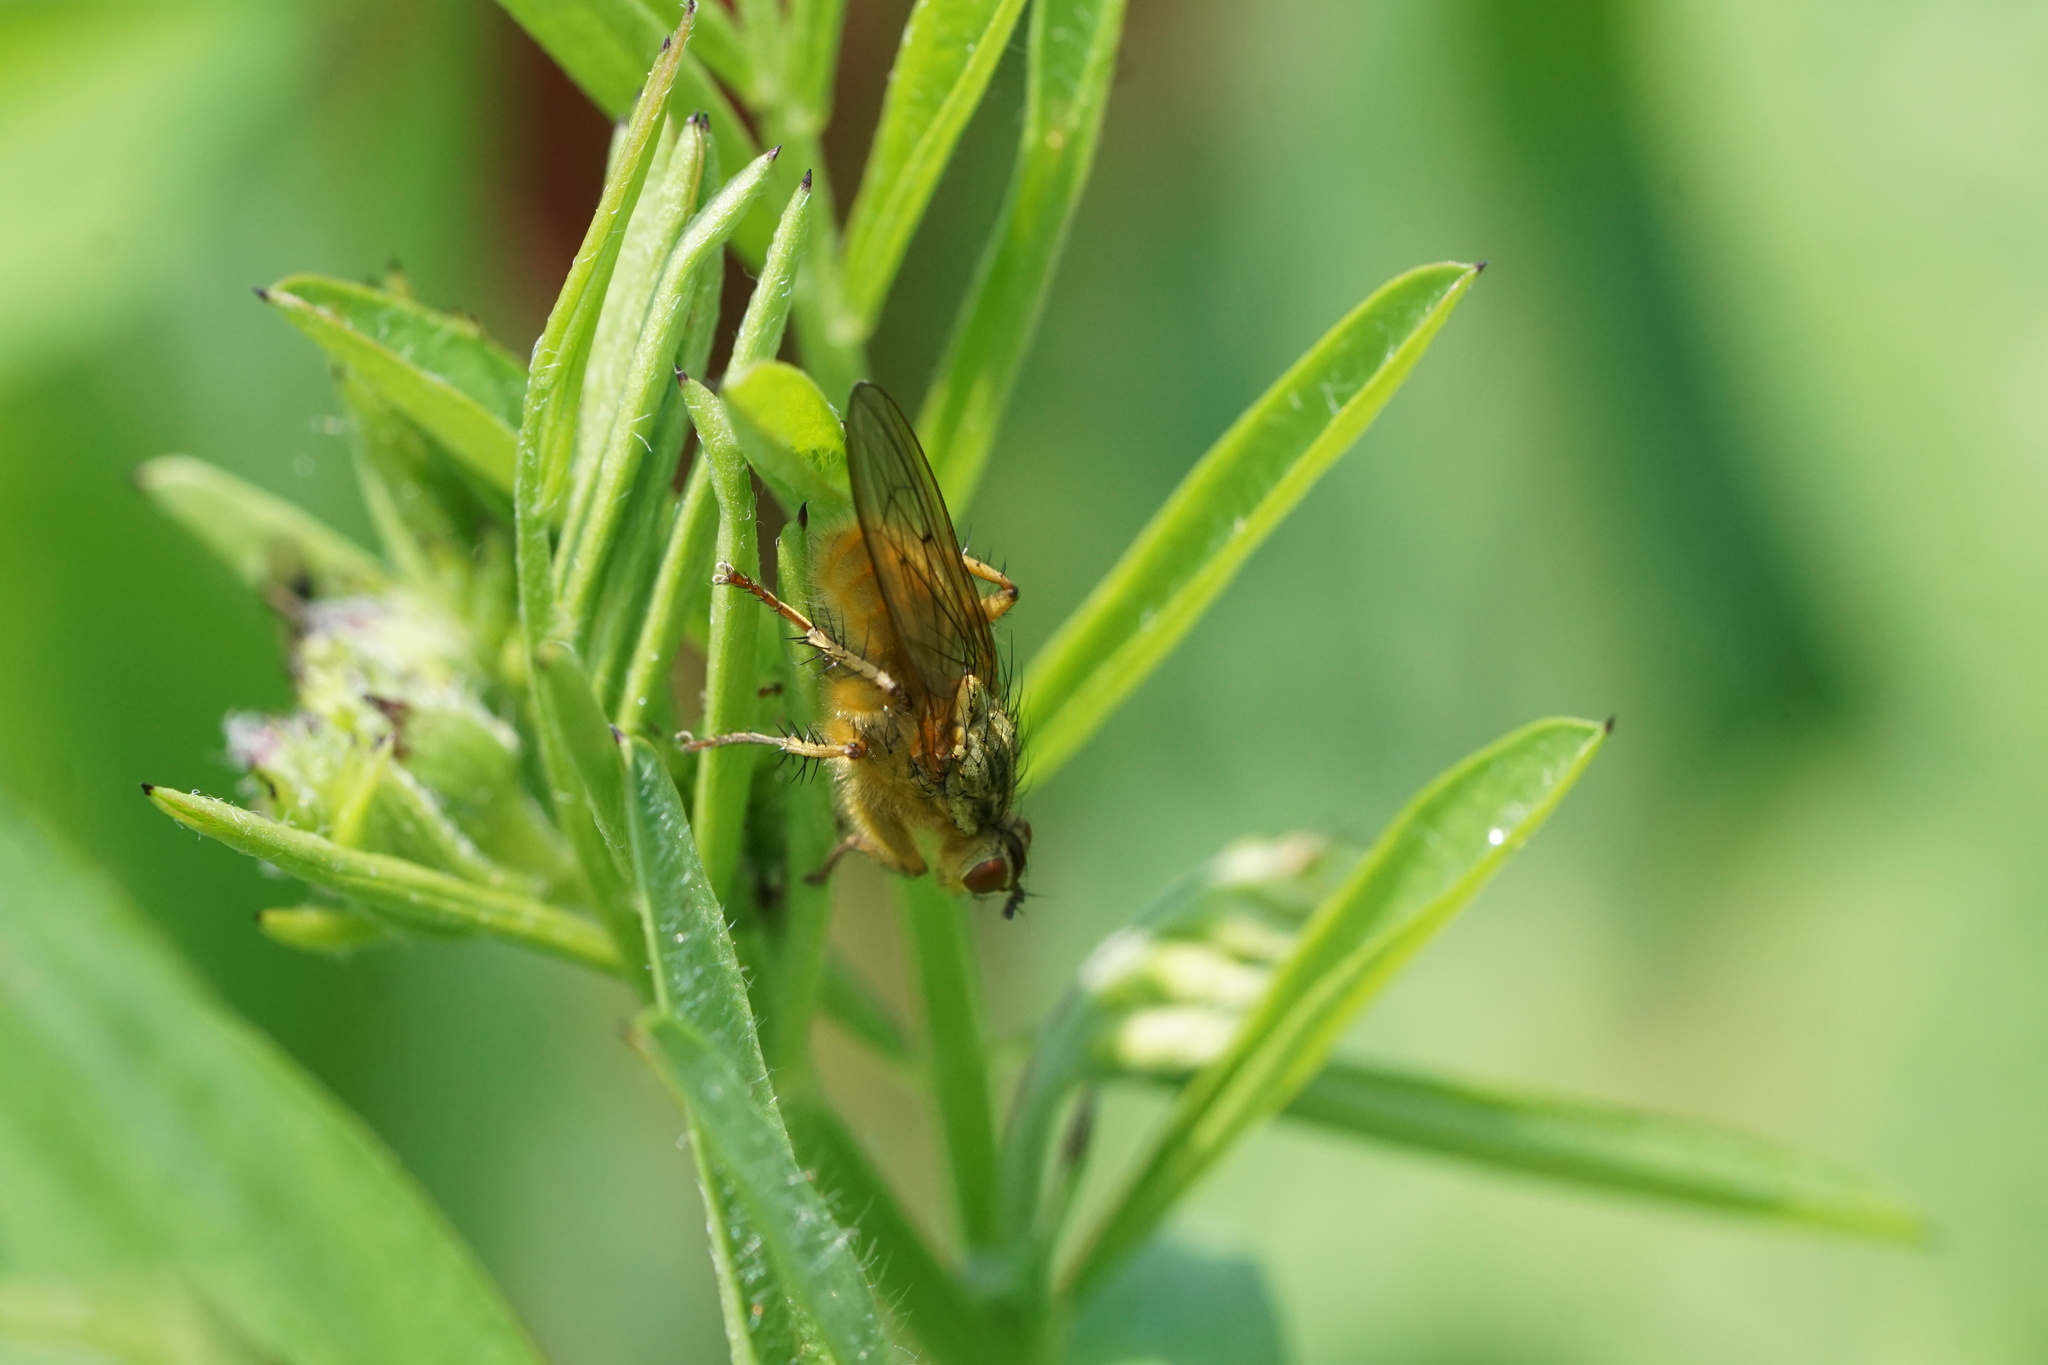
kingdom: Animalia
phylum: Arthropoda
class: Insecta
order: Diptera
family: Scathophagidae
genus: Scathophaga
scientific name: Scathophaga stercoraria
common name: Yellow dung fly
